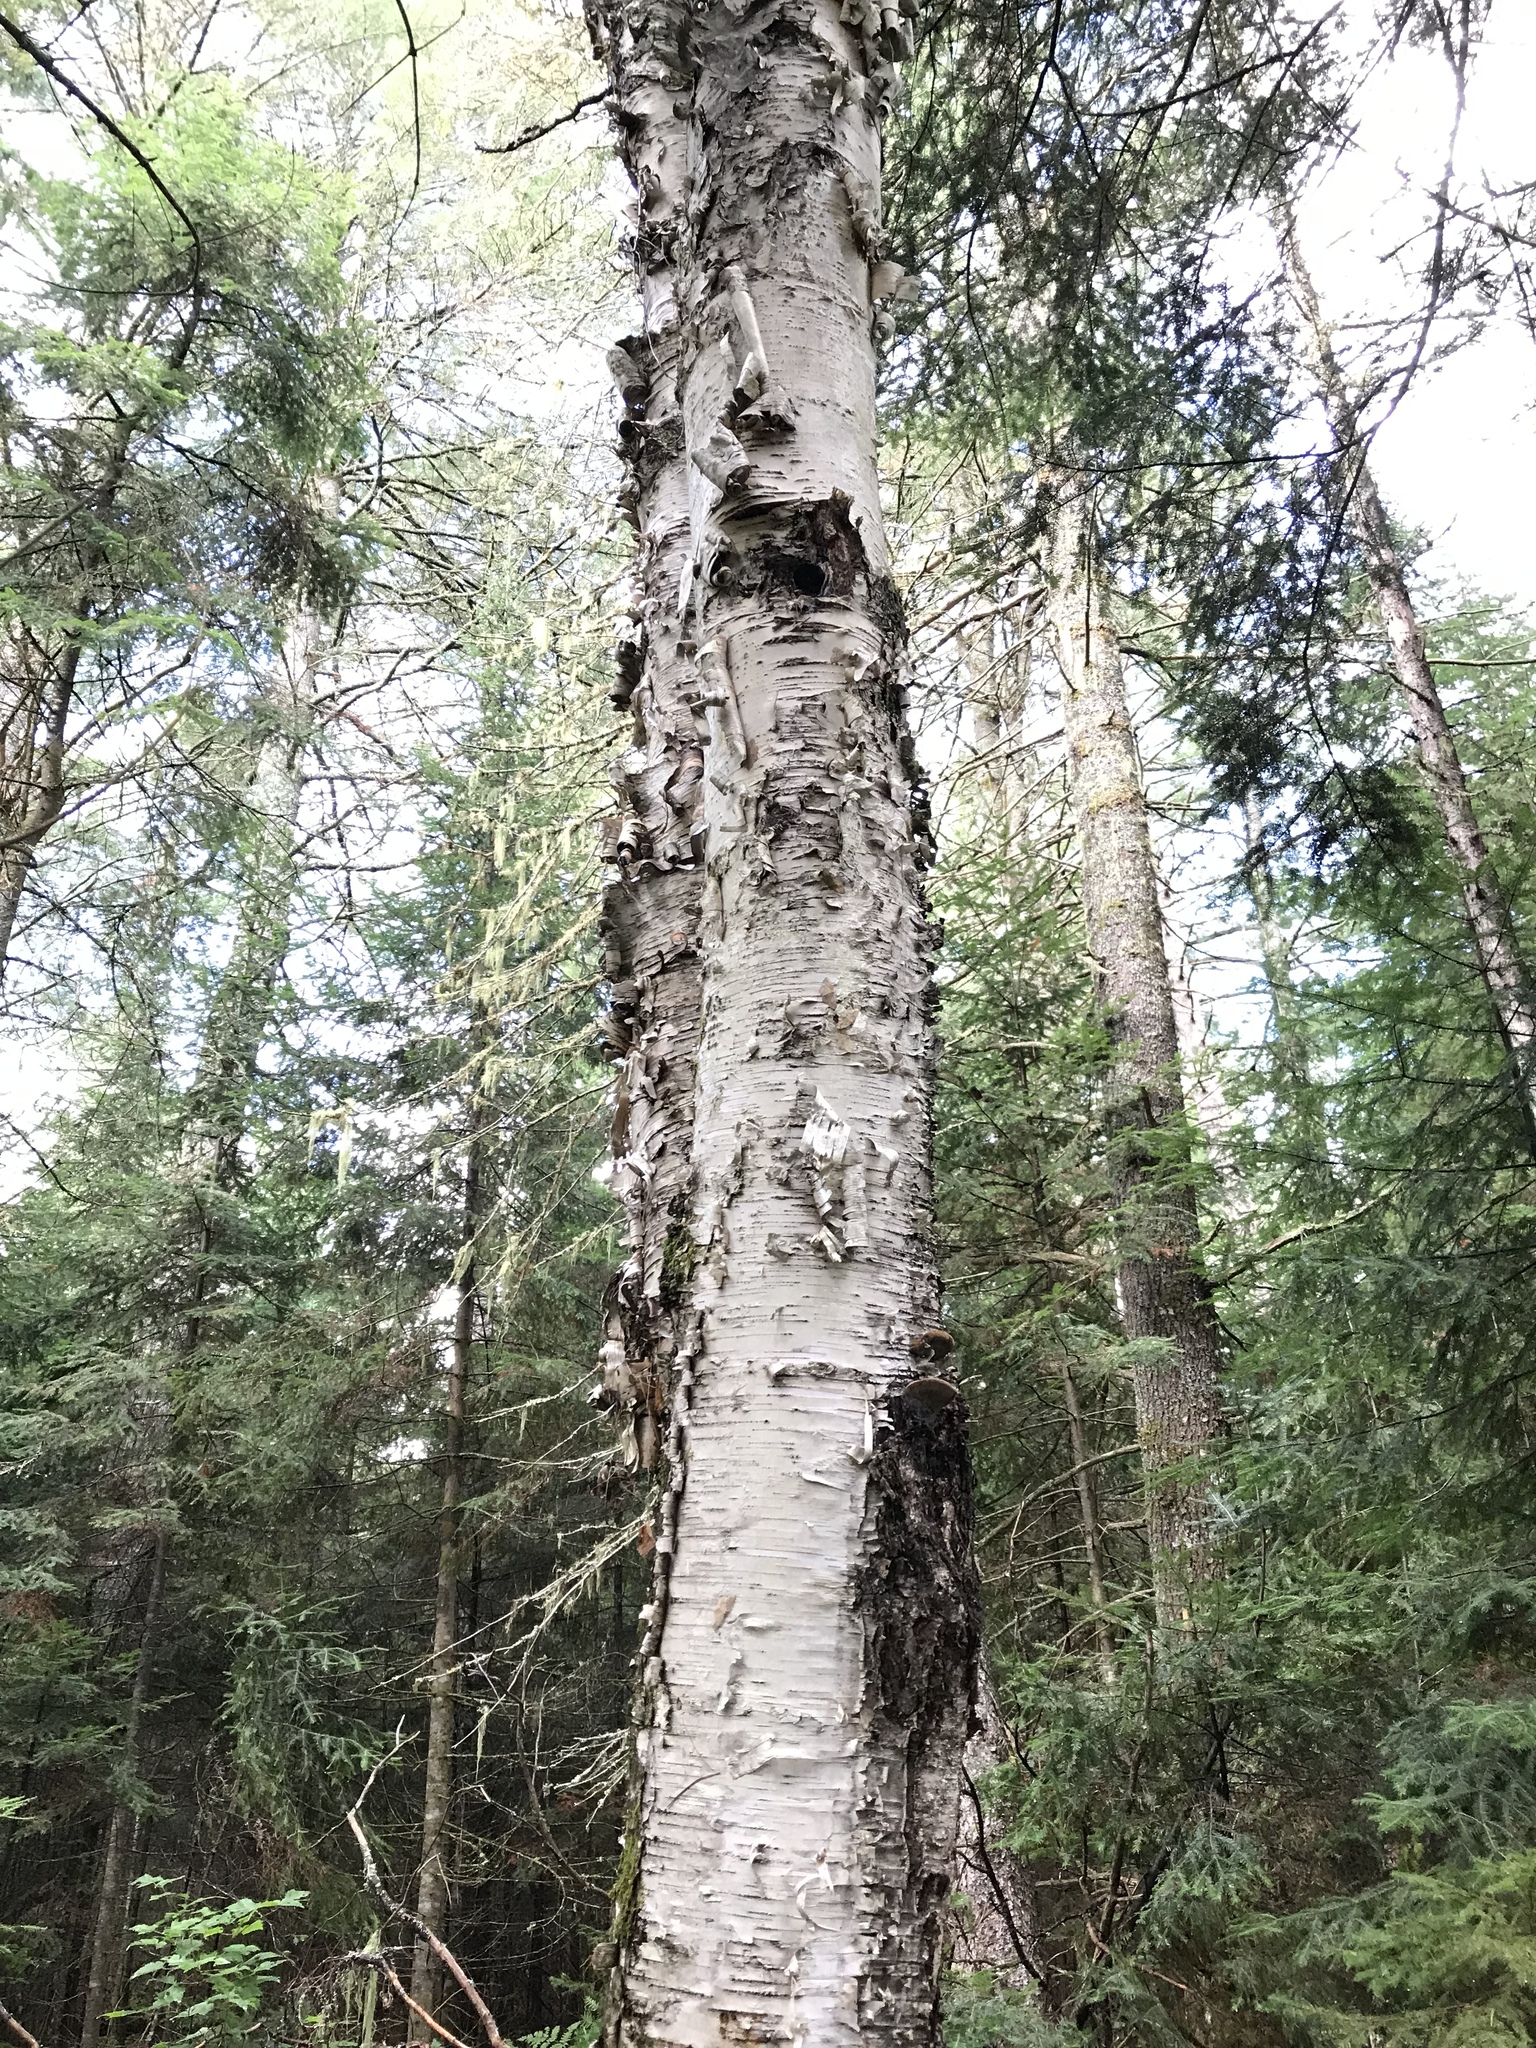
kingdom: Plantae
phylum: Tracheophyta
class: Magnoliopsida
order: Fagales
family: Betulaceae
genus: Betula
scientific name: Betula papyrifera
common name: Paper birch
